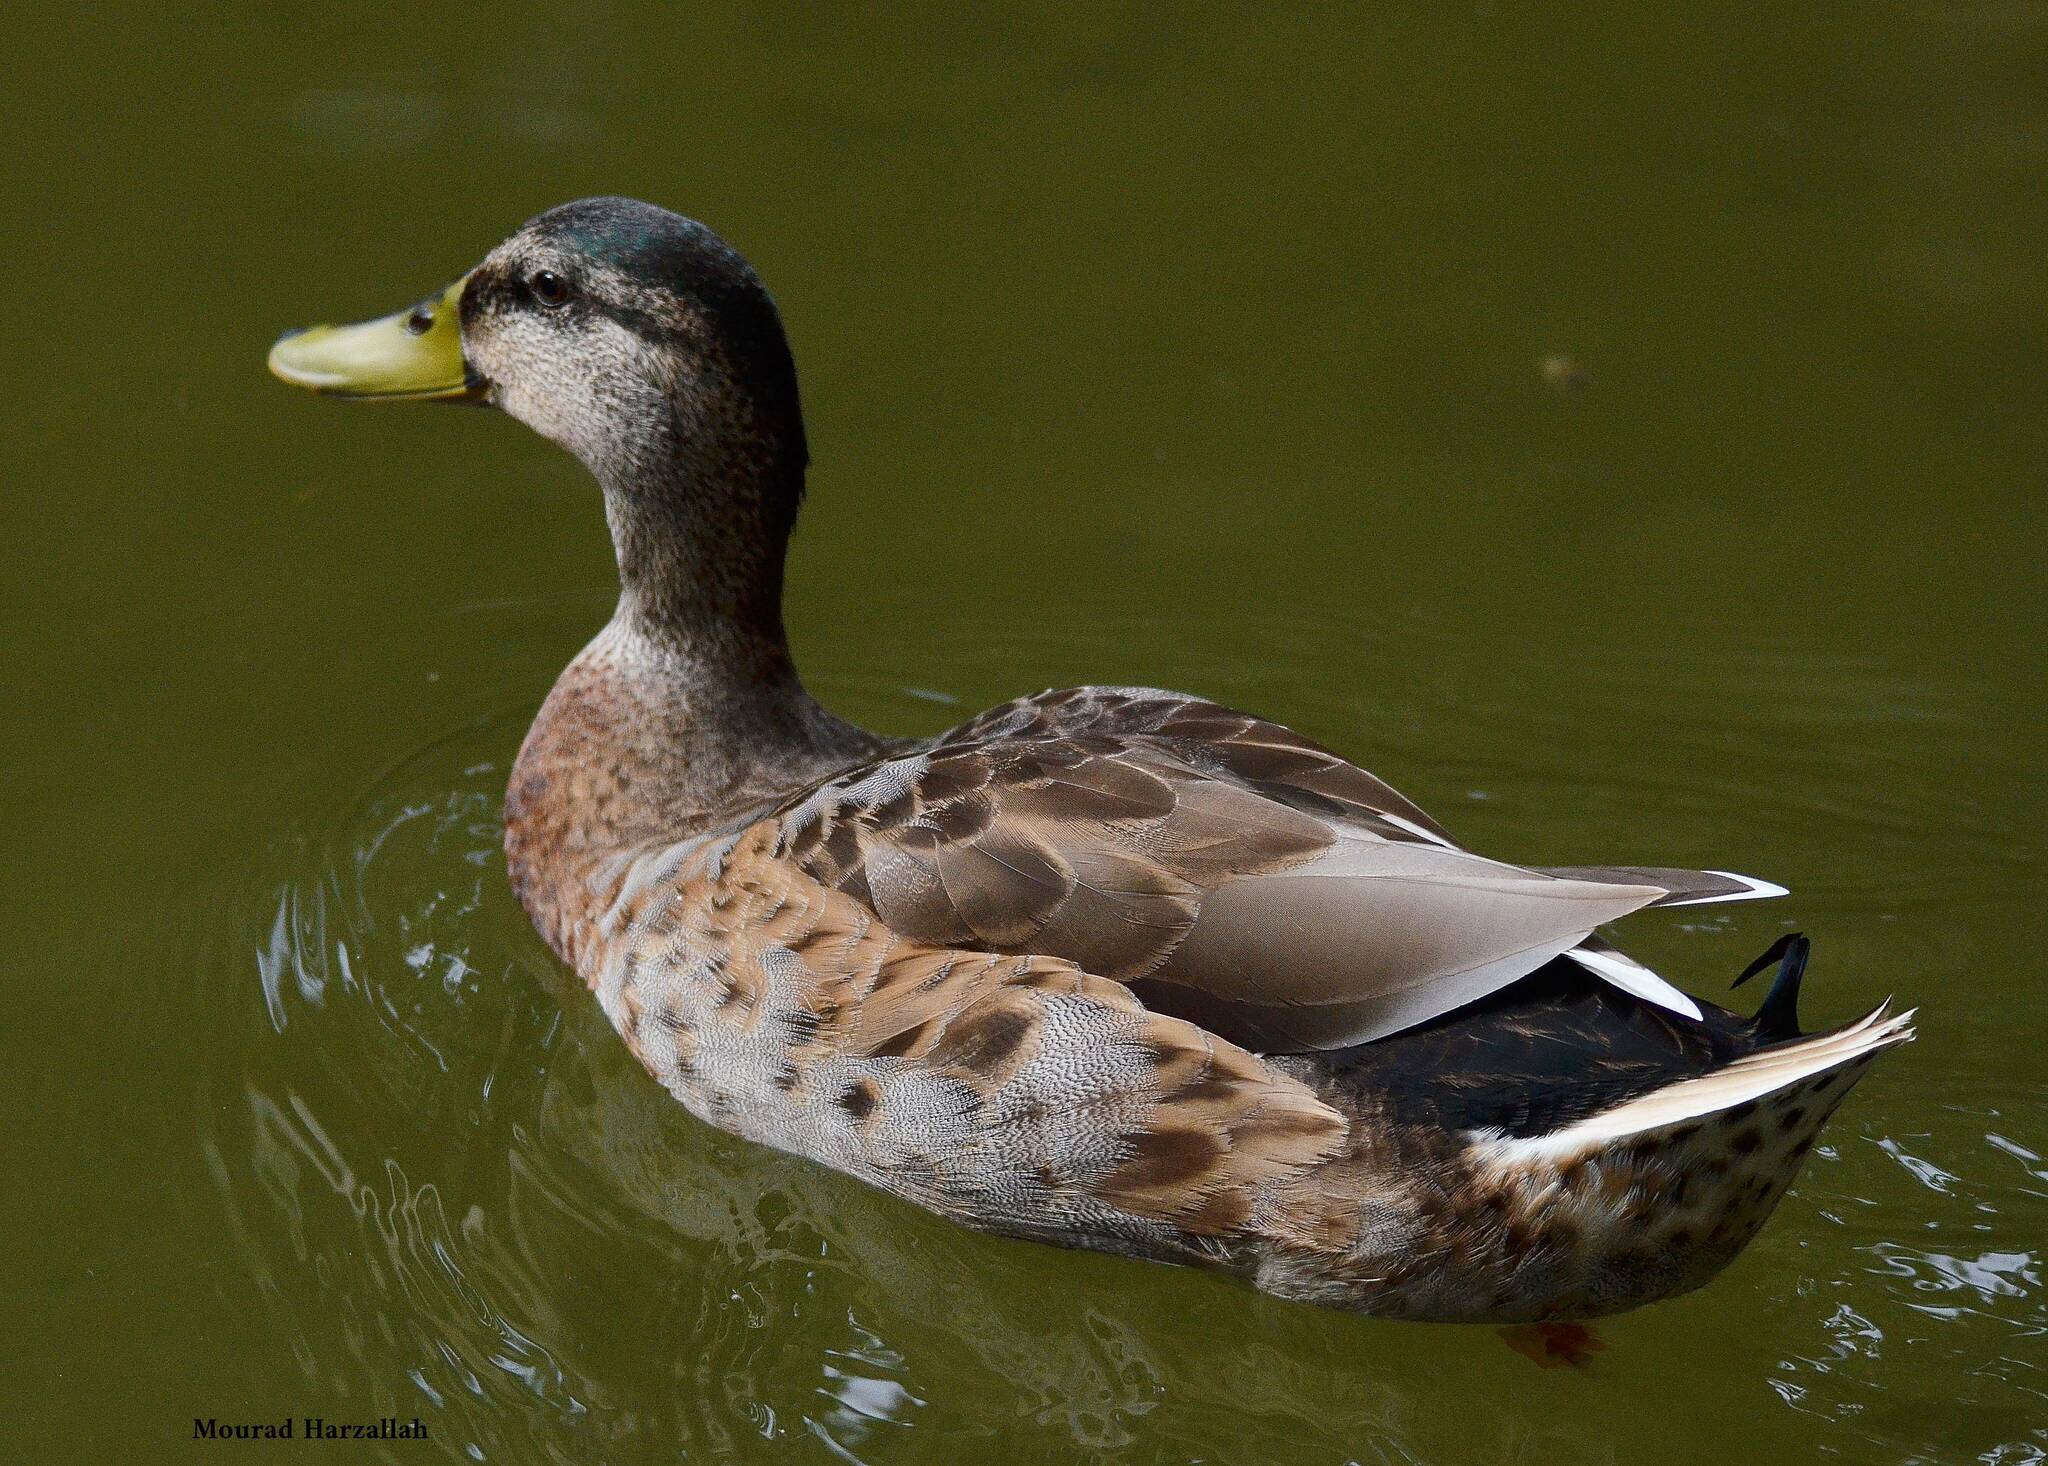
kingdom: Animalia
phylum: Chordata
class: Aves
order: Anseriformes
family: Anatidae
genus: Anas
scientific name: Anas platyrhynchos
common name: Mallard
